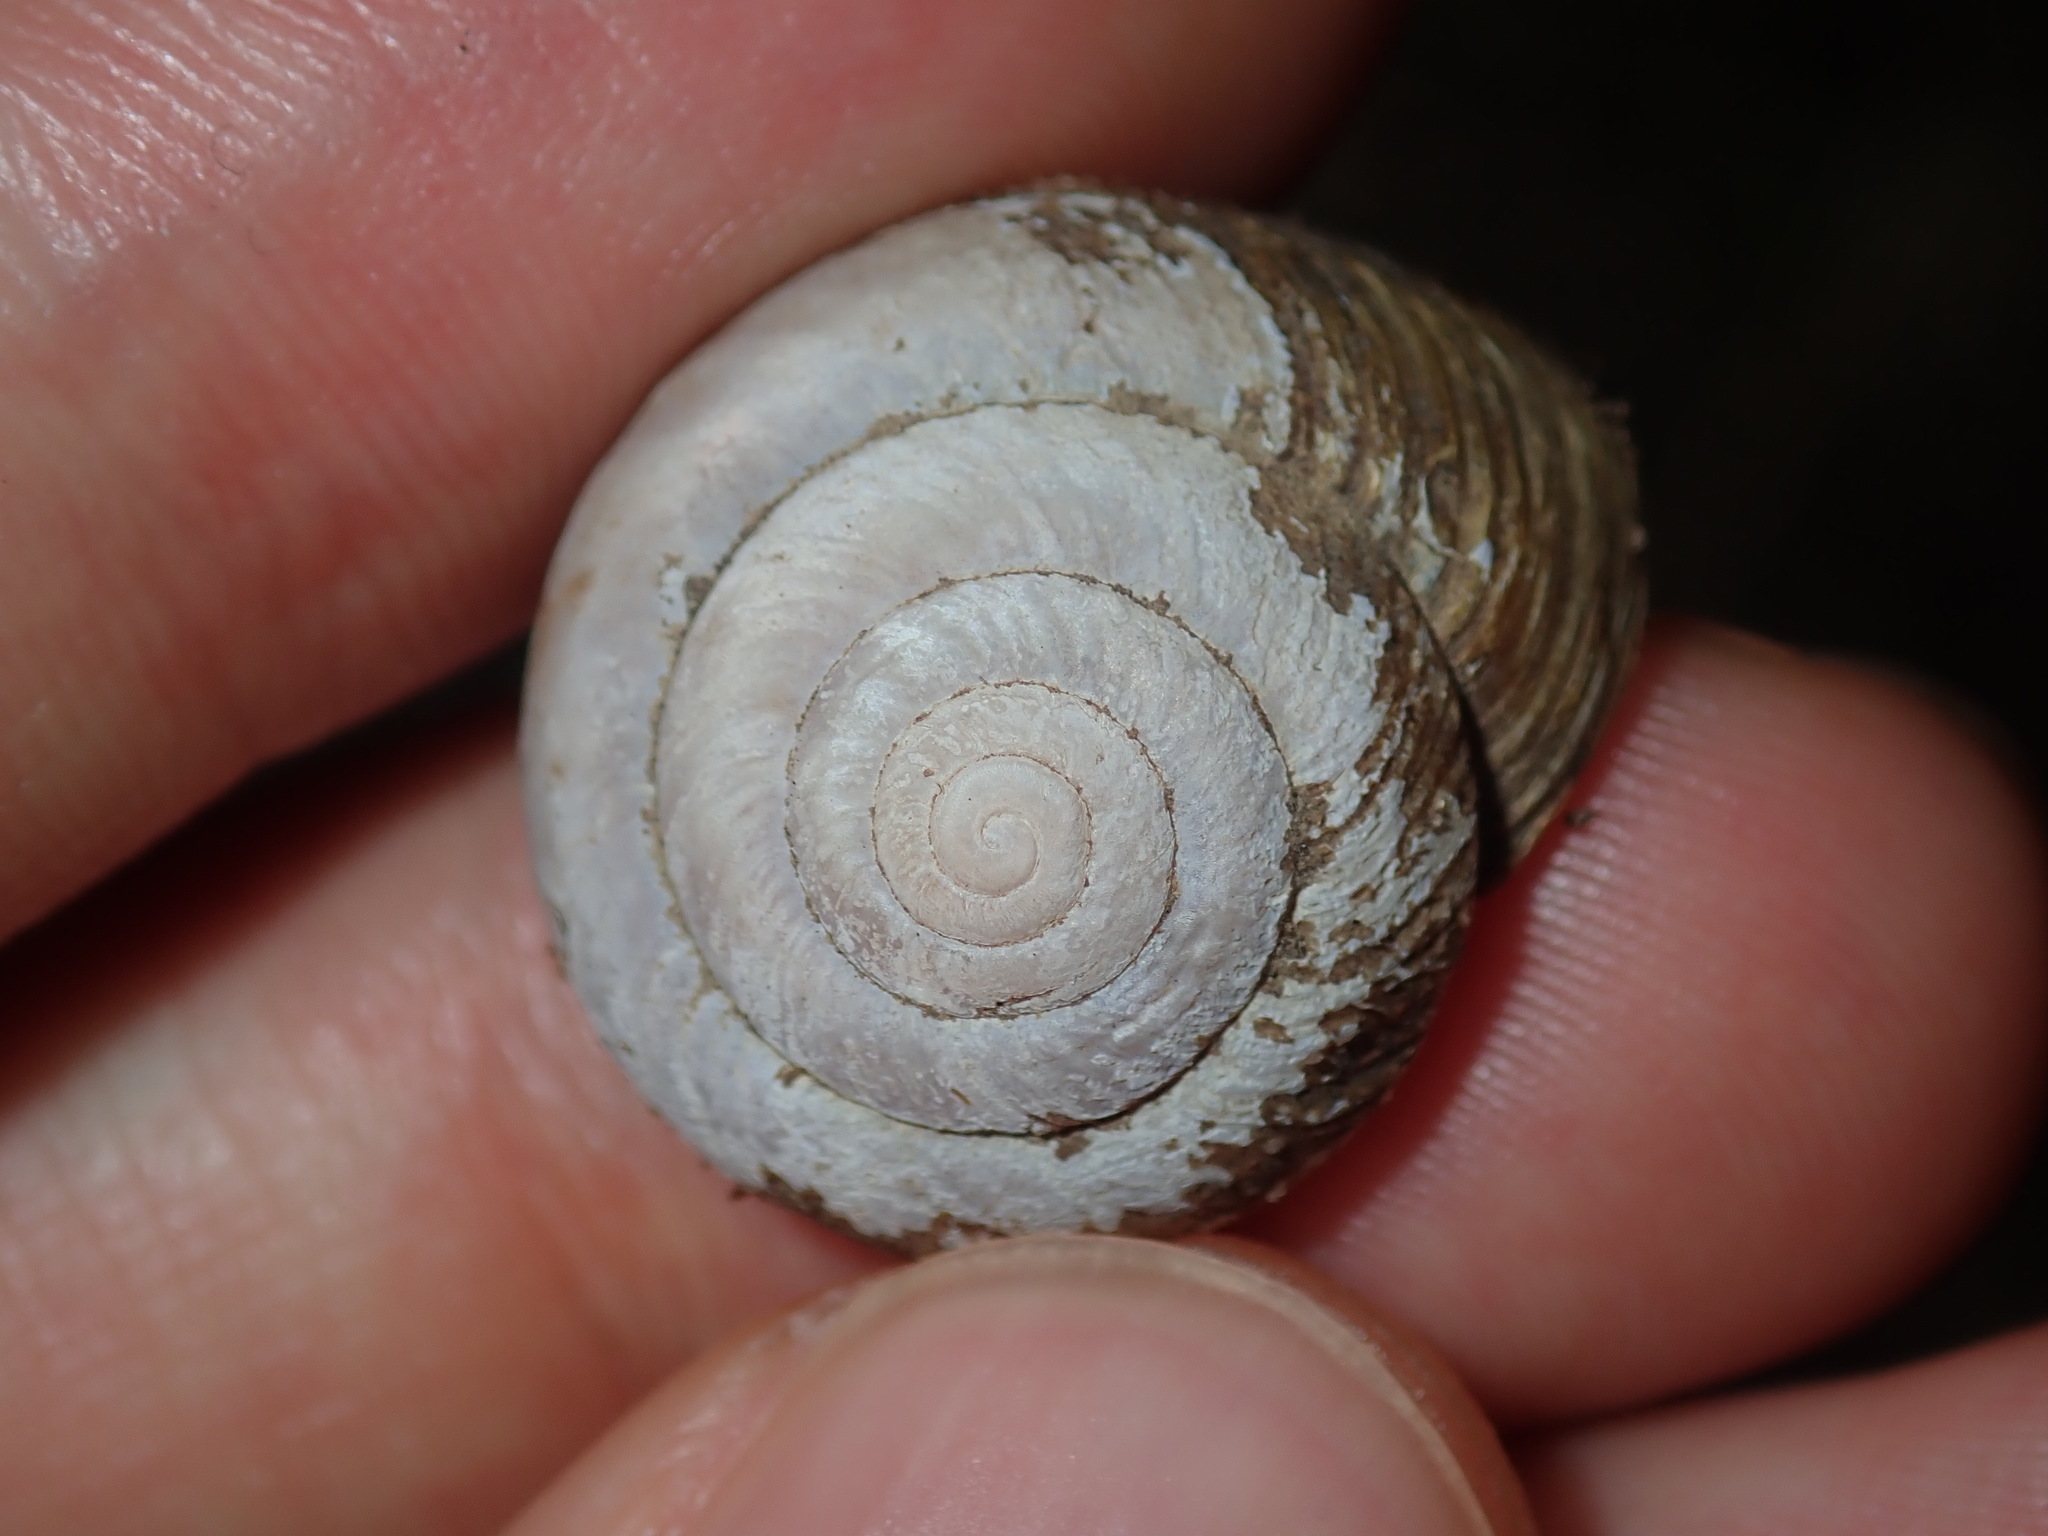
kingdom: Animalia
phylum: Mollusca
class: Gastropoda
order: Stylommatophora
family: Camaenidae
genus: Sauroconcha
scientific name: Sauroconcha sheai
